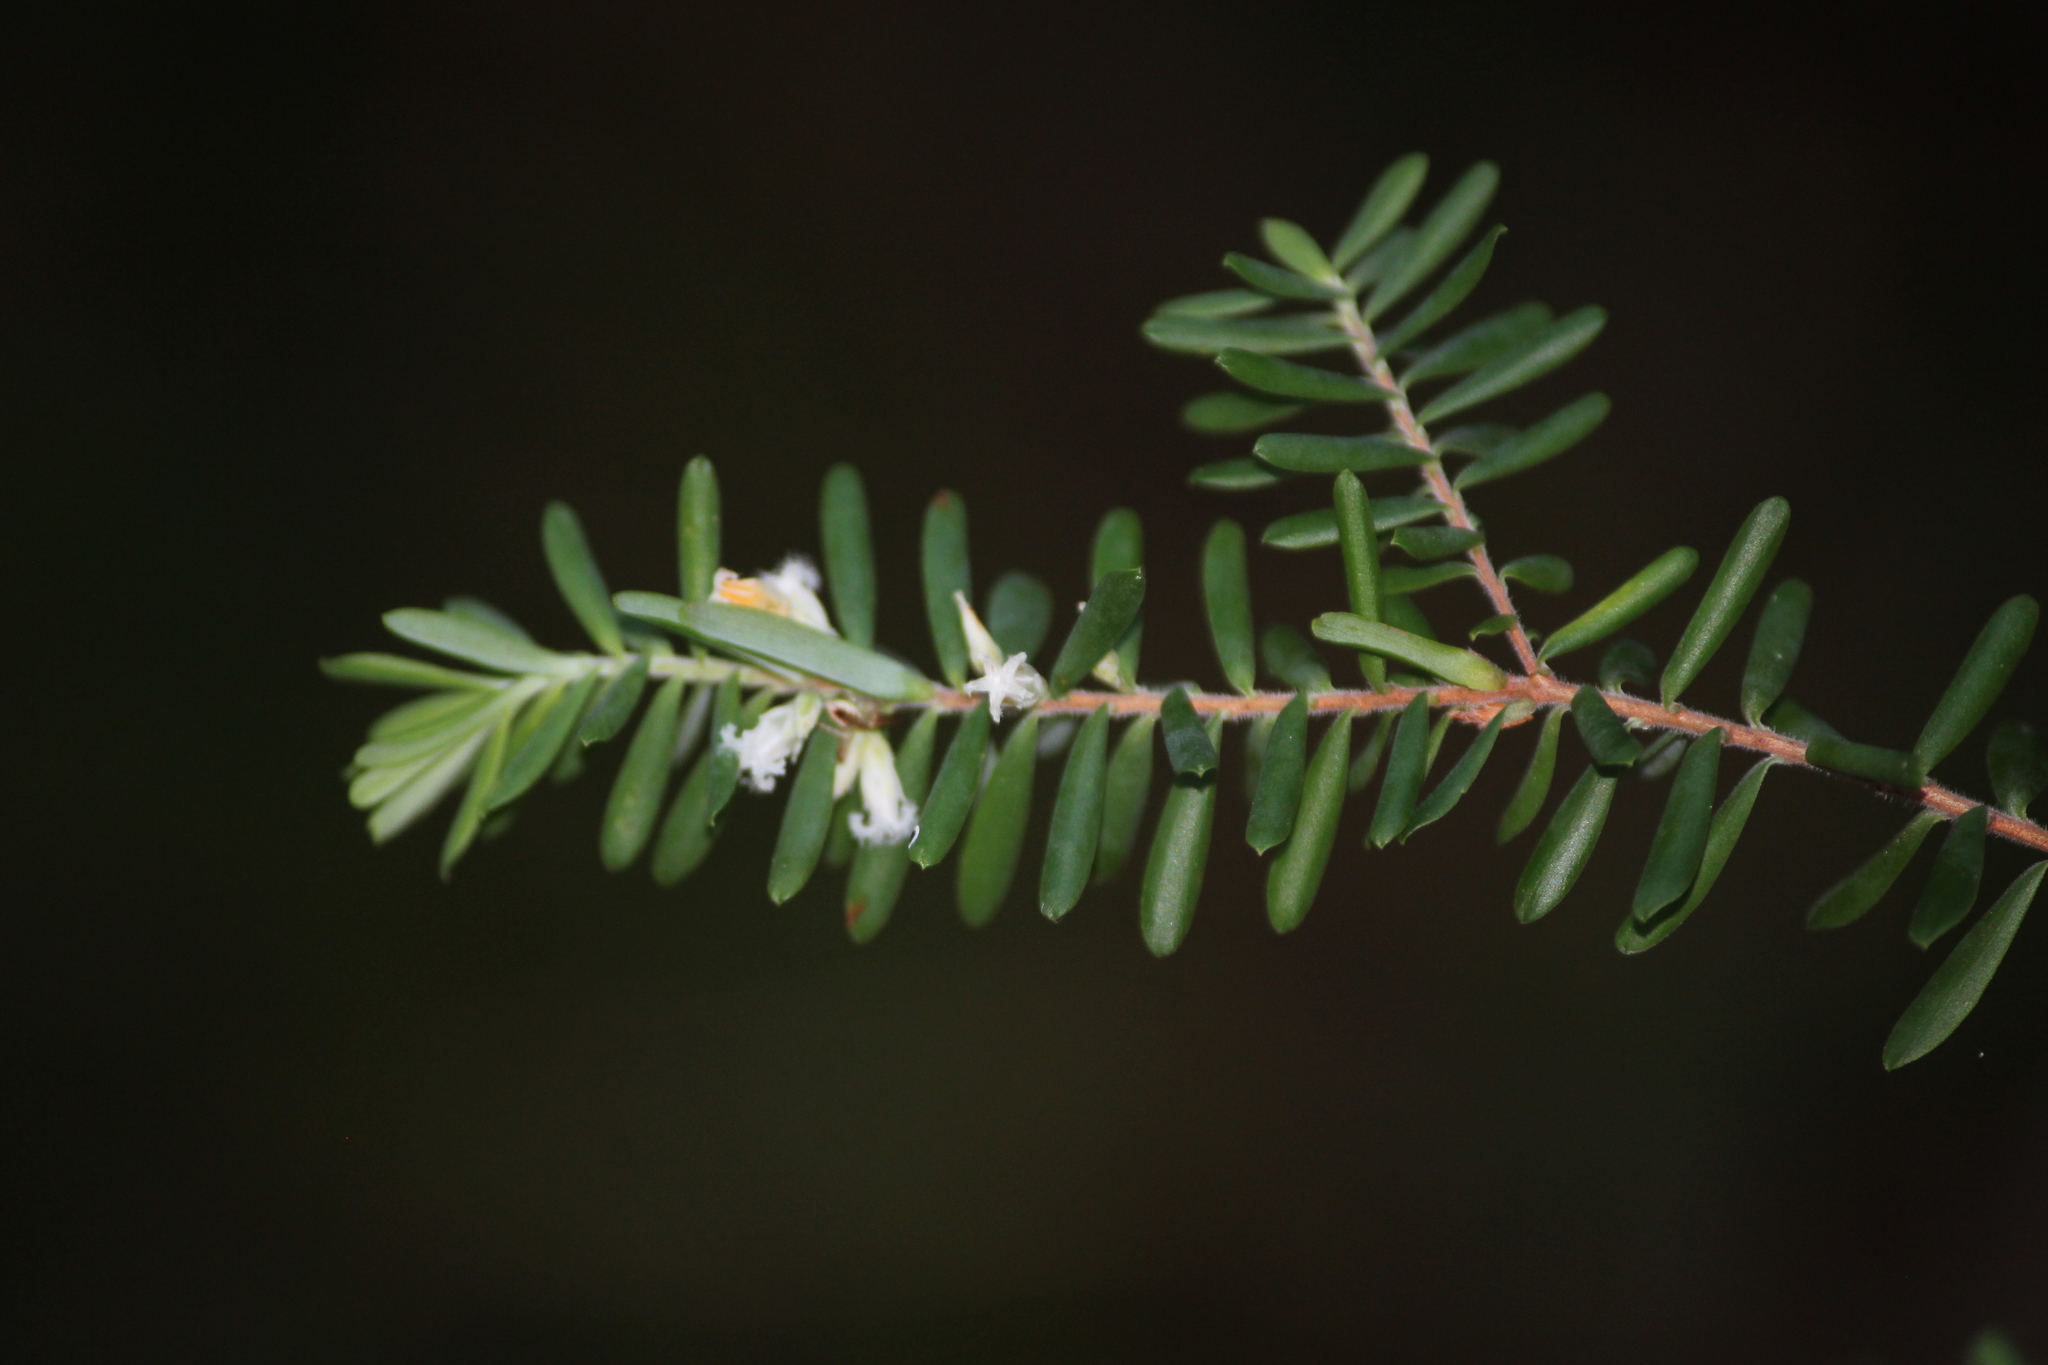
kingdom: Plantae
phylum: Tracheophyta
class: Magnoliopsida
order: Ericales
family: Ericaceae
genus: Styphelia
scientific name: Styphelia margarodes
